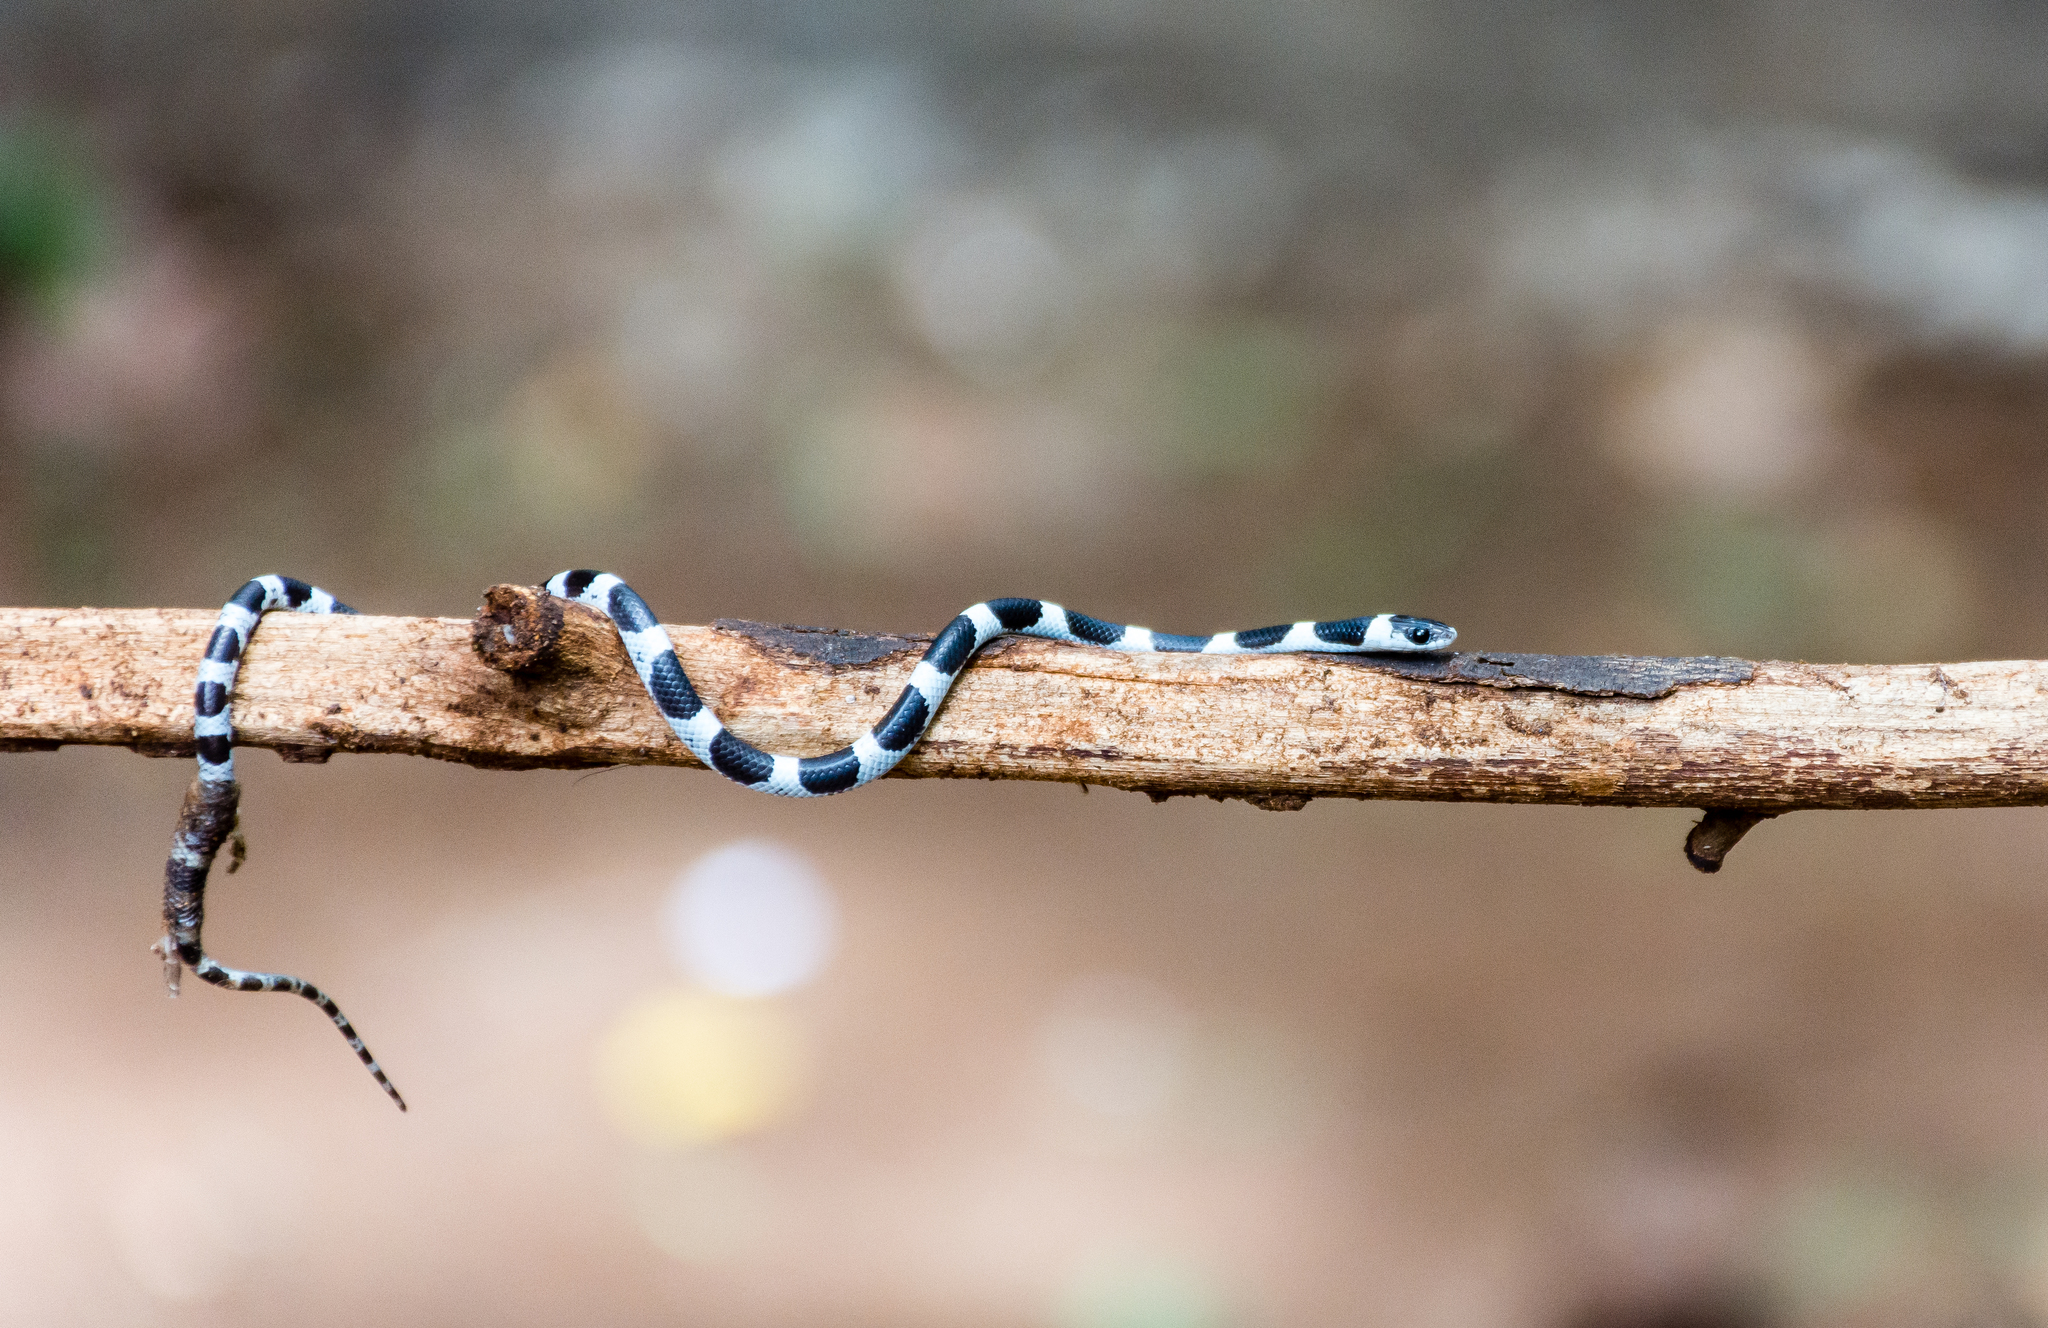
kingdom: Animalia
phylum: Chordata
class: Squamata
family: Colubridae
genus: Lycodon
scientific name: Lycodon nympha
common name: Vellore bridal snake
